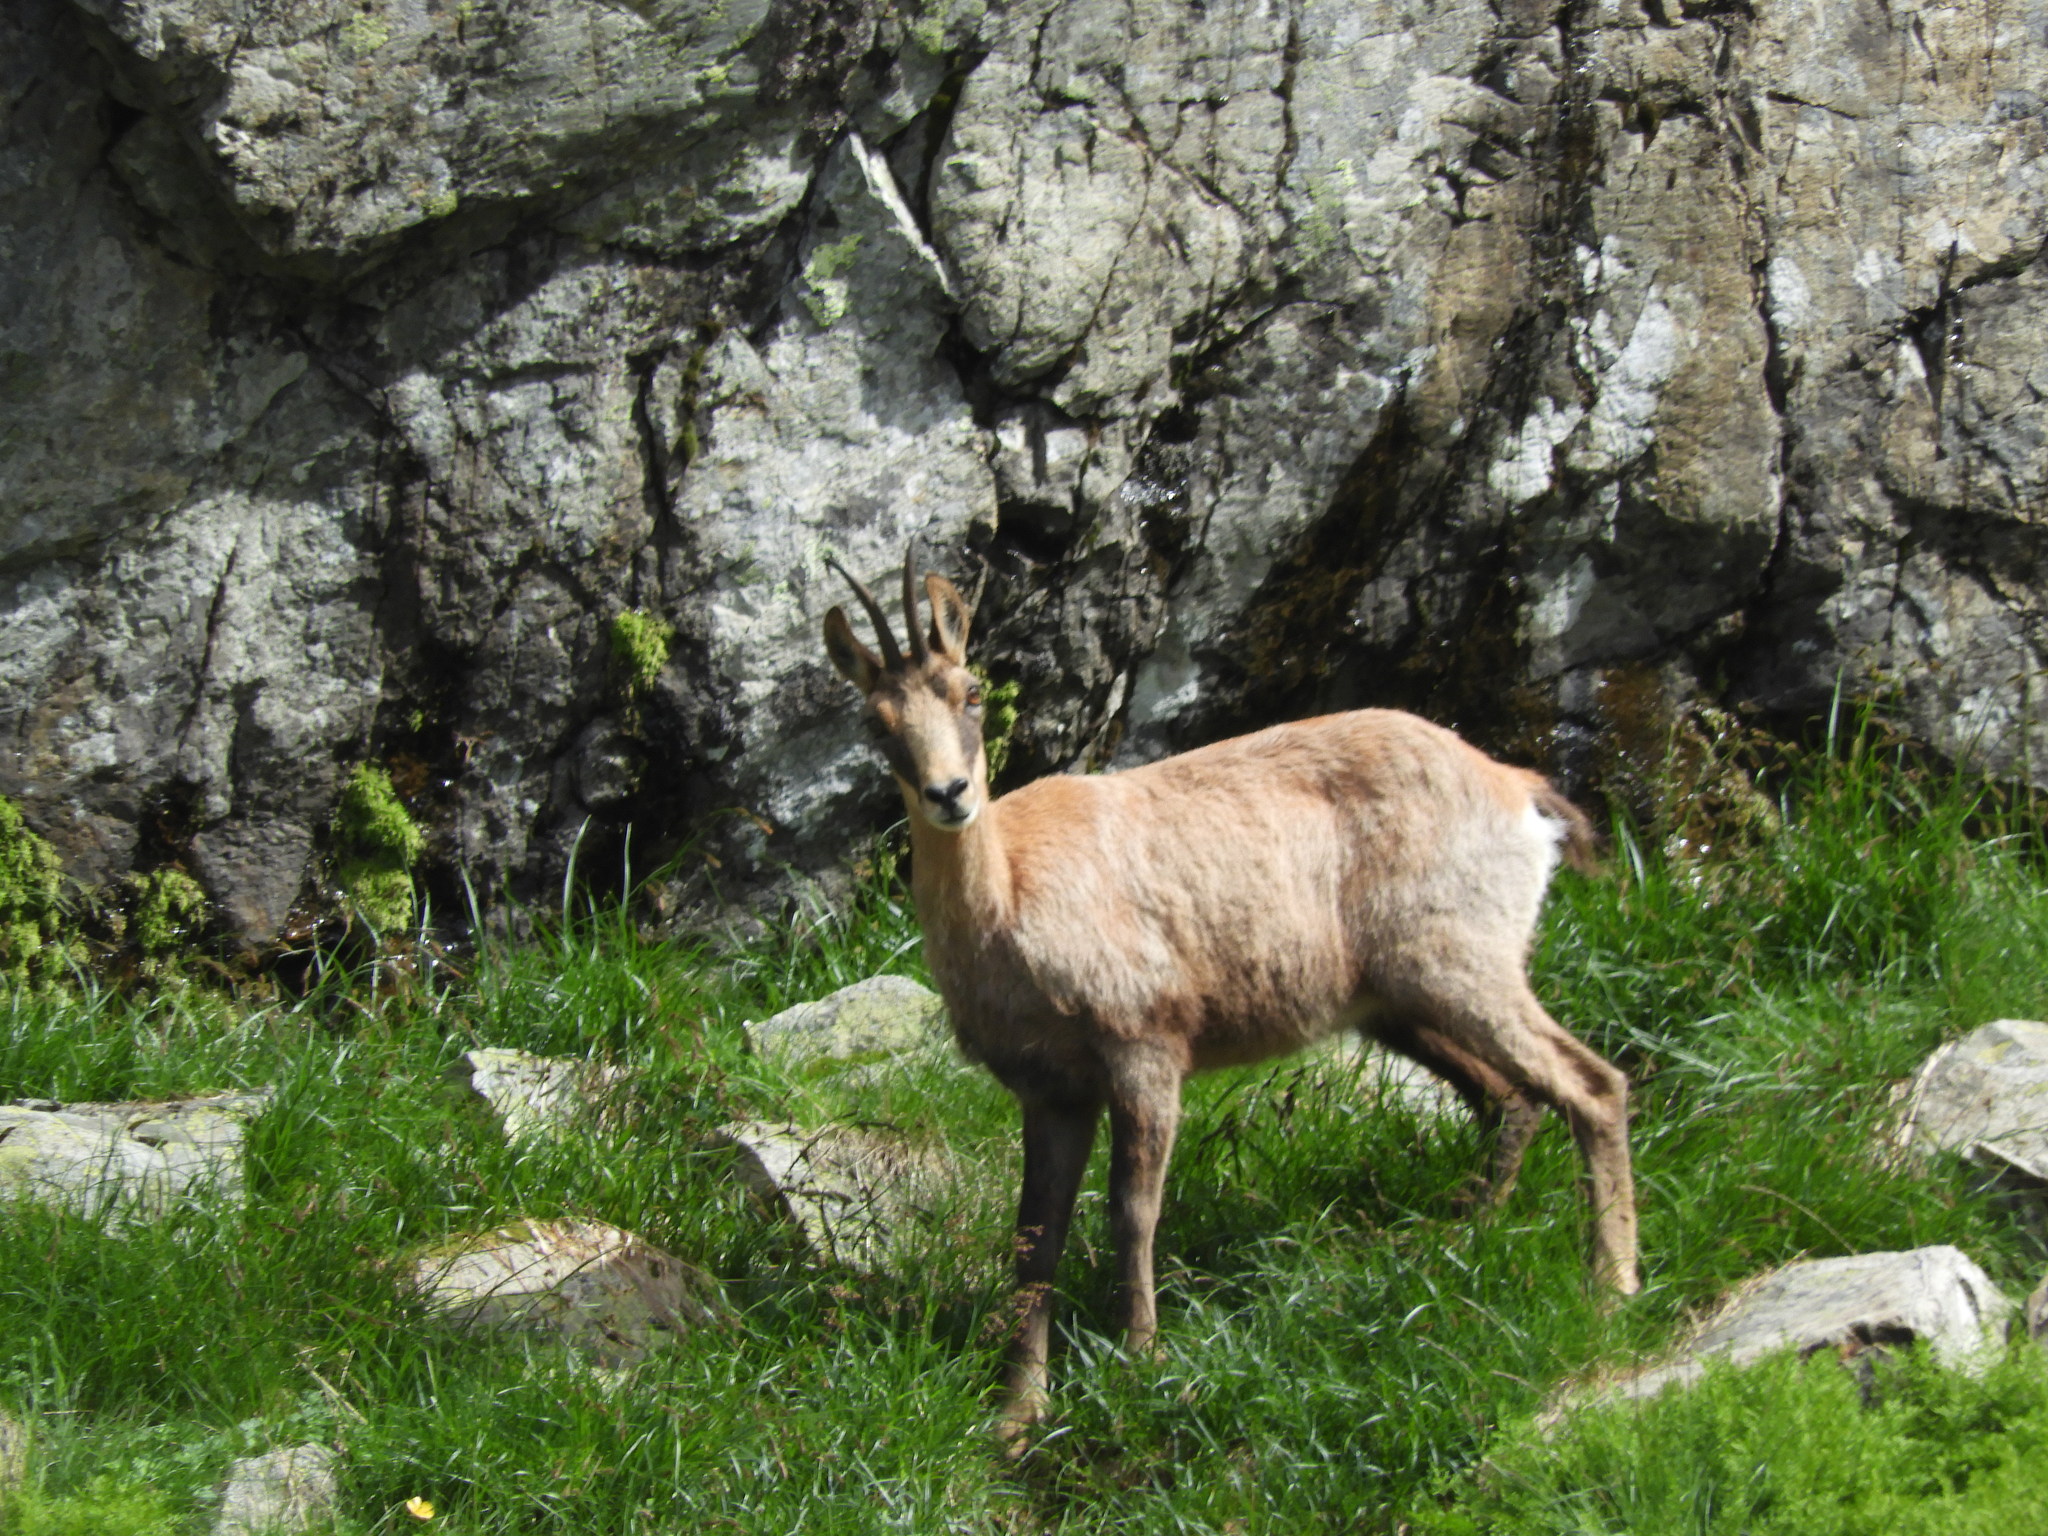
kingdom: Animalia
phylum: Chordata
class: Mammalia
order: Artiodactyla
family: Bovidae
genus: Rupicapra
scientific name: Rupicapra pyrenaica
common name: Pyrenean chamois
